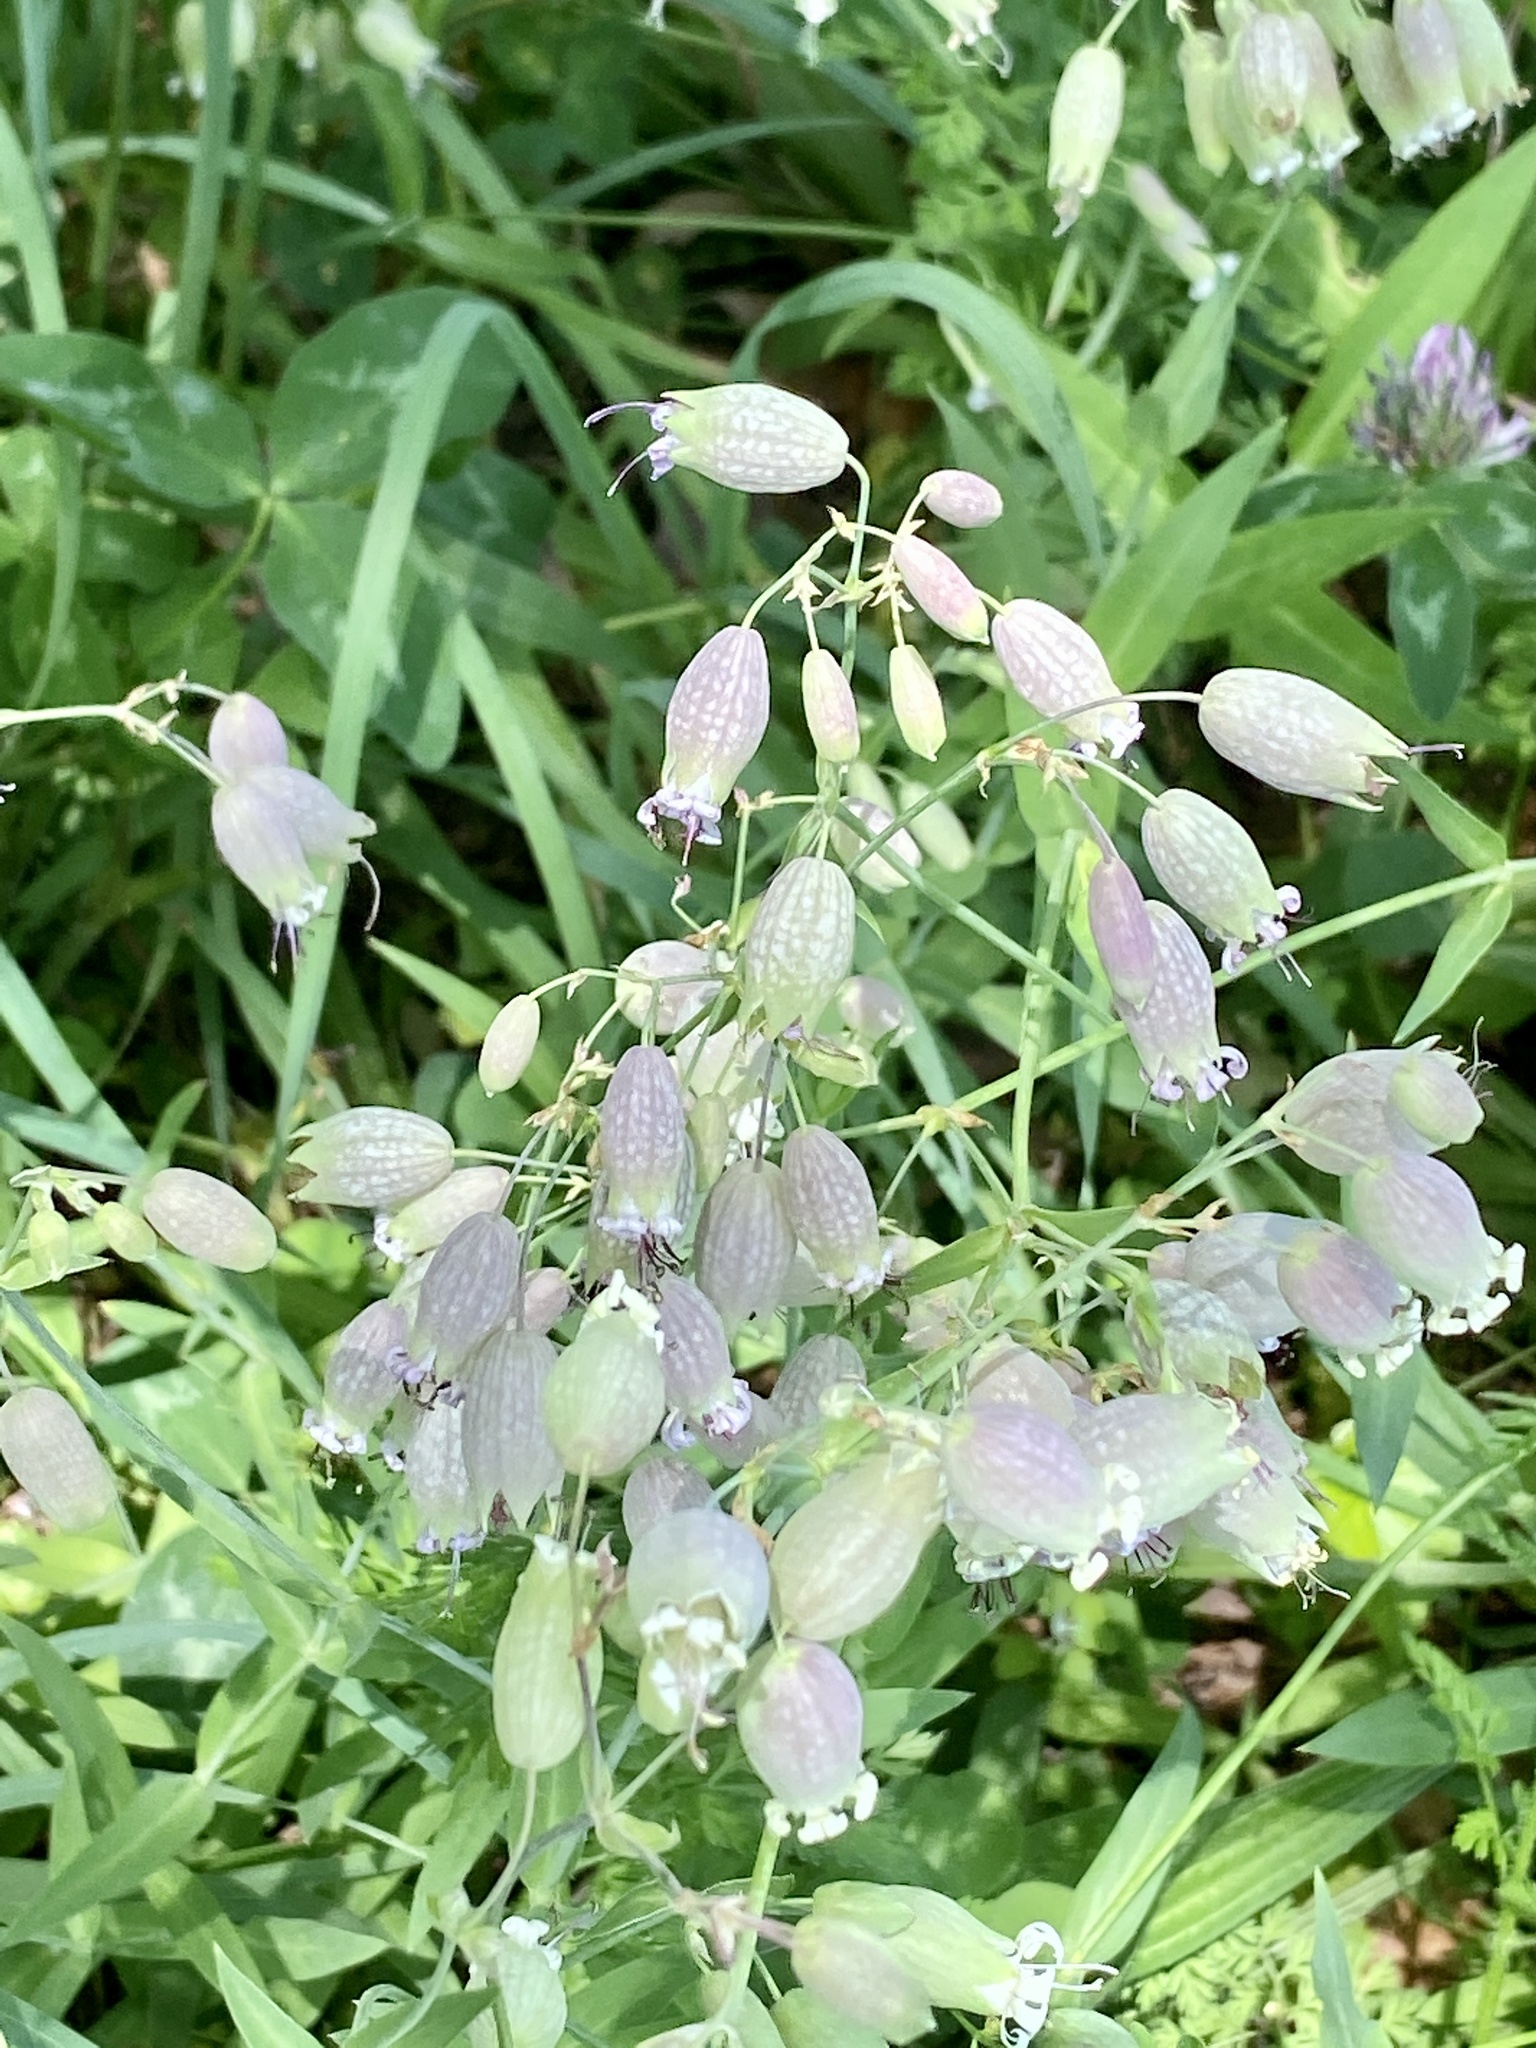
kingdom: Plantae
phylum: Tracheophyta
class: Magnoliopsida
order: Caryophyllales
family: Caryophyllaceae
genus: Silene
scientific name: Silene vulgaris
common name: Bladder campion
